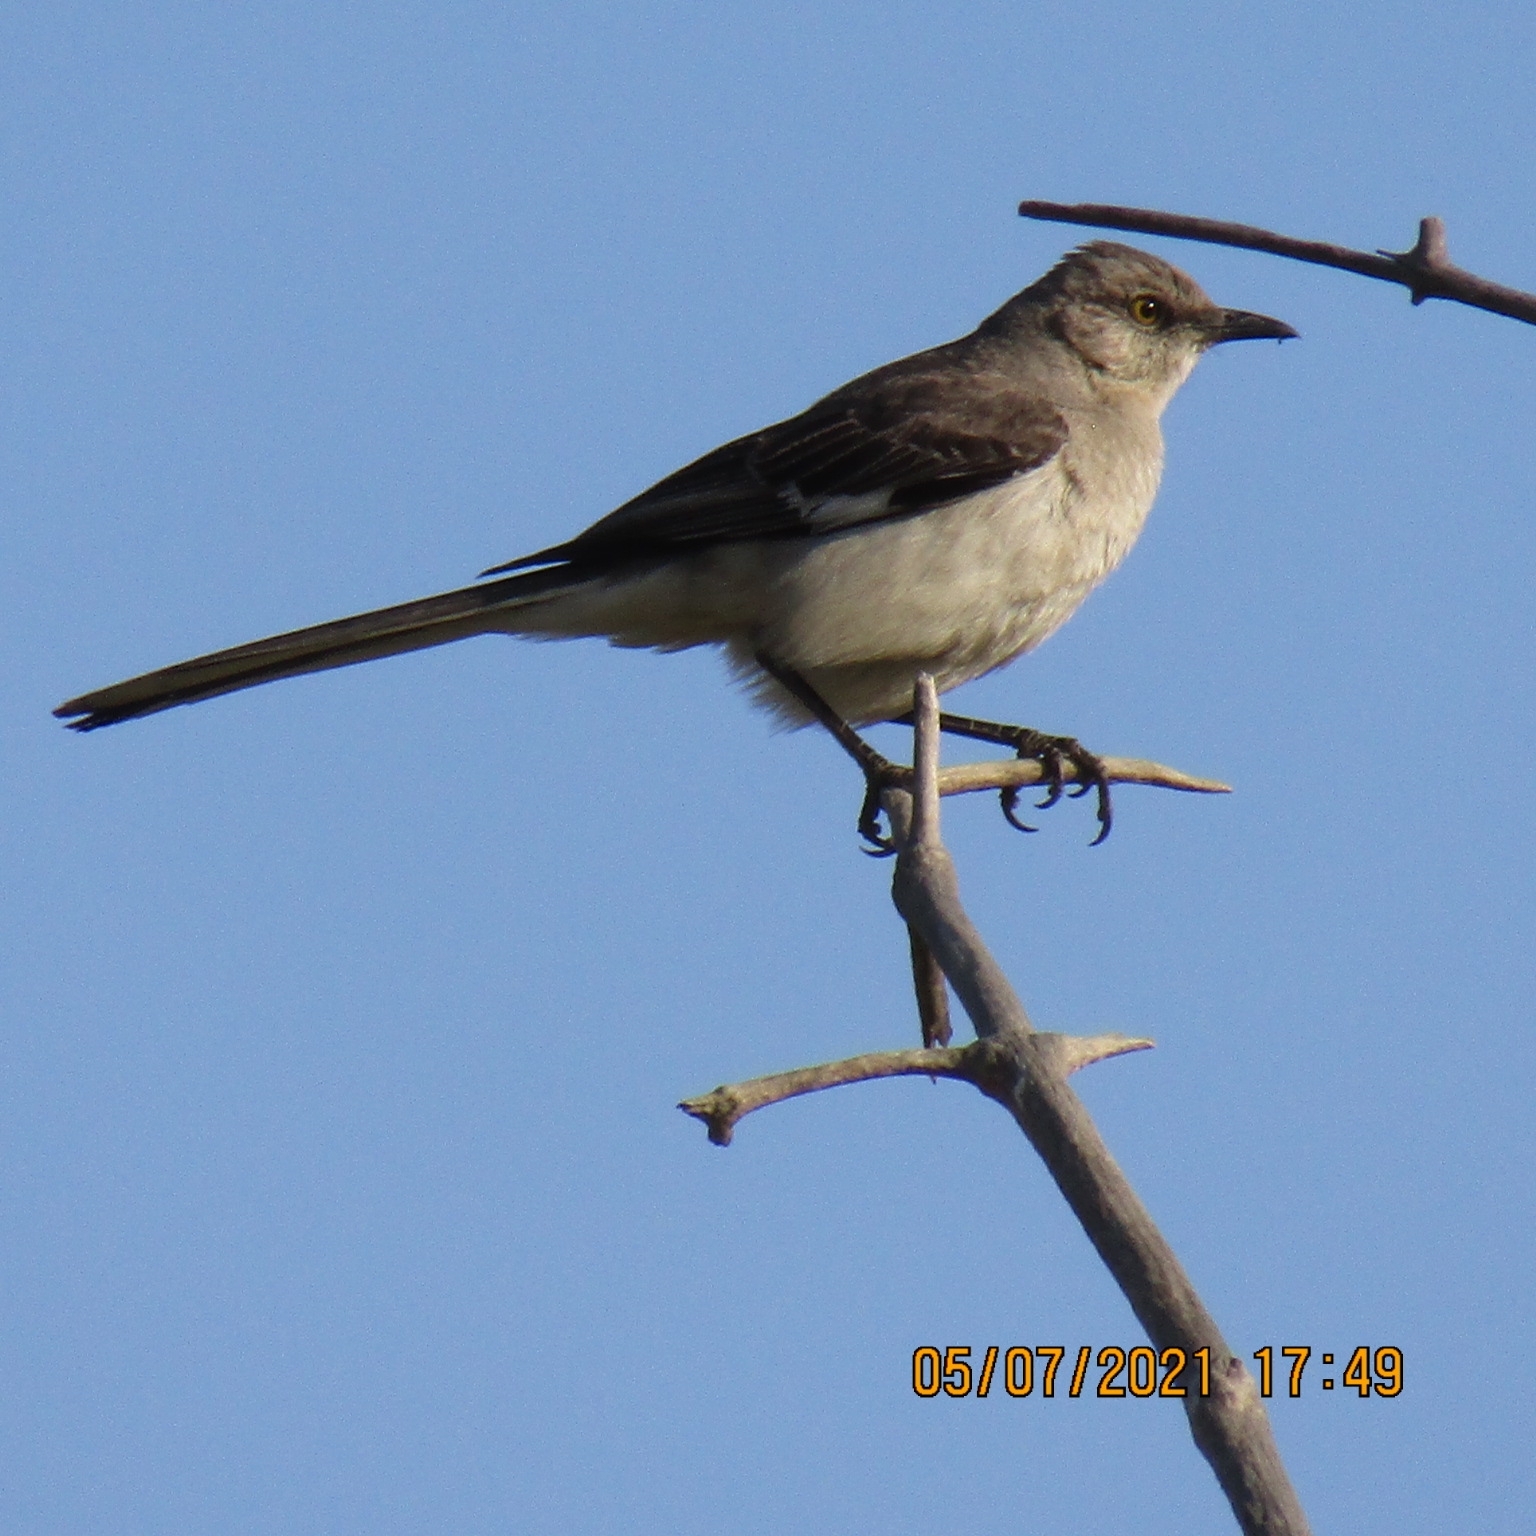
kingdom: Animalia
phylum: Chordata
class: Aves
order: Passeriformes
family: Mimidae
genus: Mimus
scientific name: Mimus polyglottos
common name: Northern mockingbird
